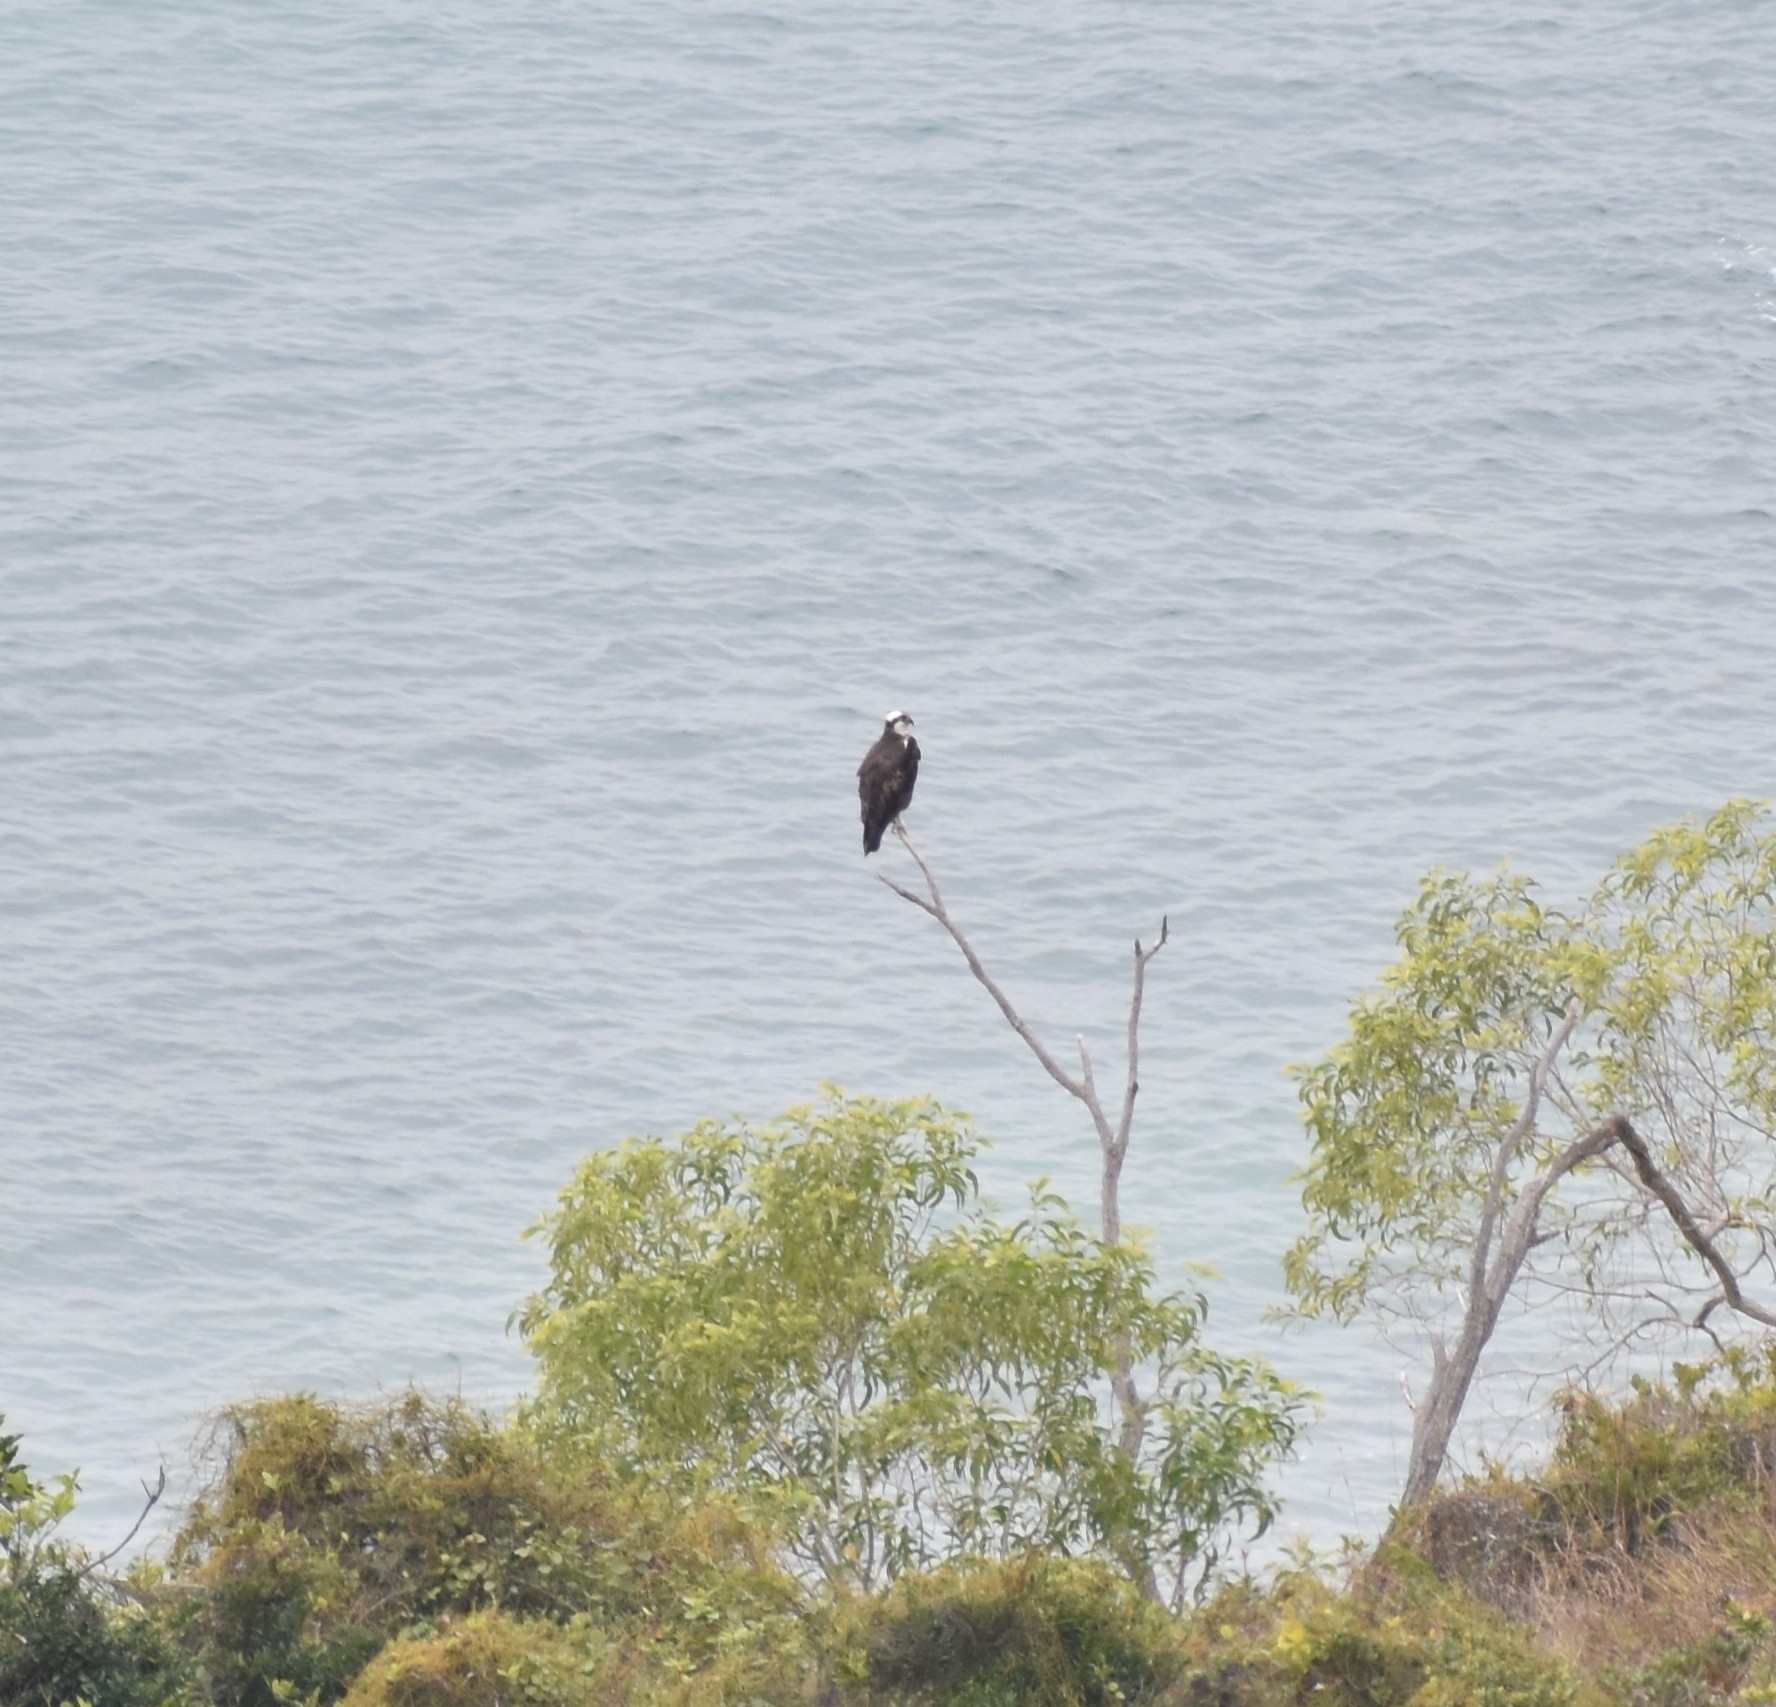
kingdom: Animalia
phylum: Chordata
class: Aves
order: Accipitriformes
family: Pandionidae
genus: Pandion
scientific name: Pandion haliaetus
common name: Osprey
